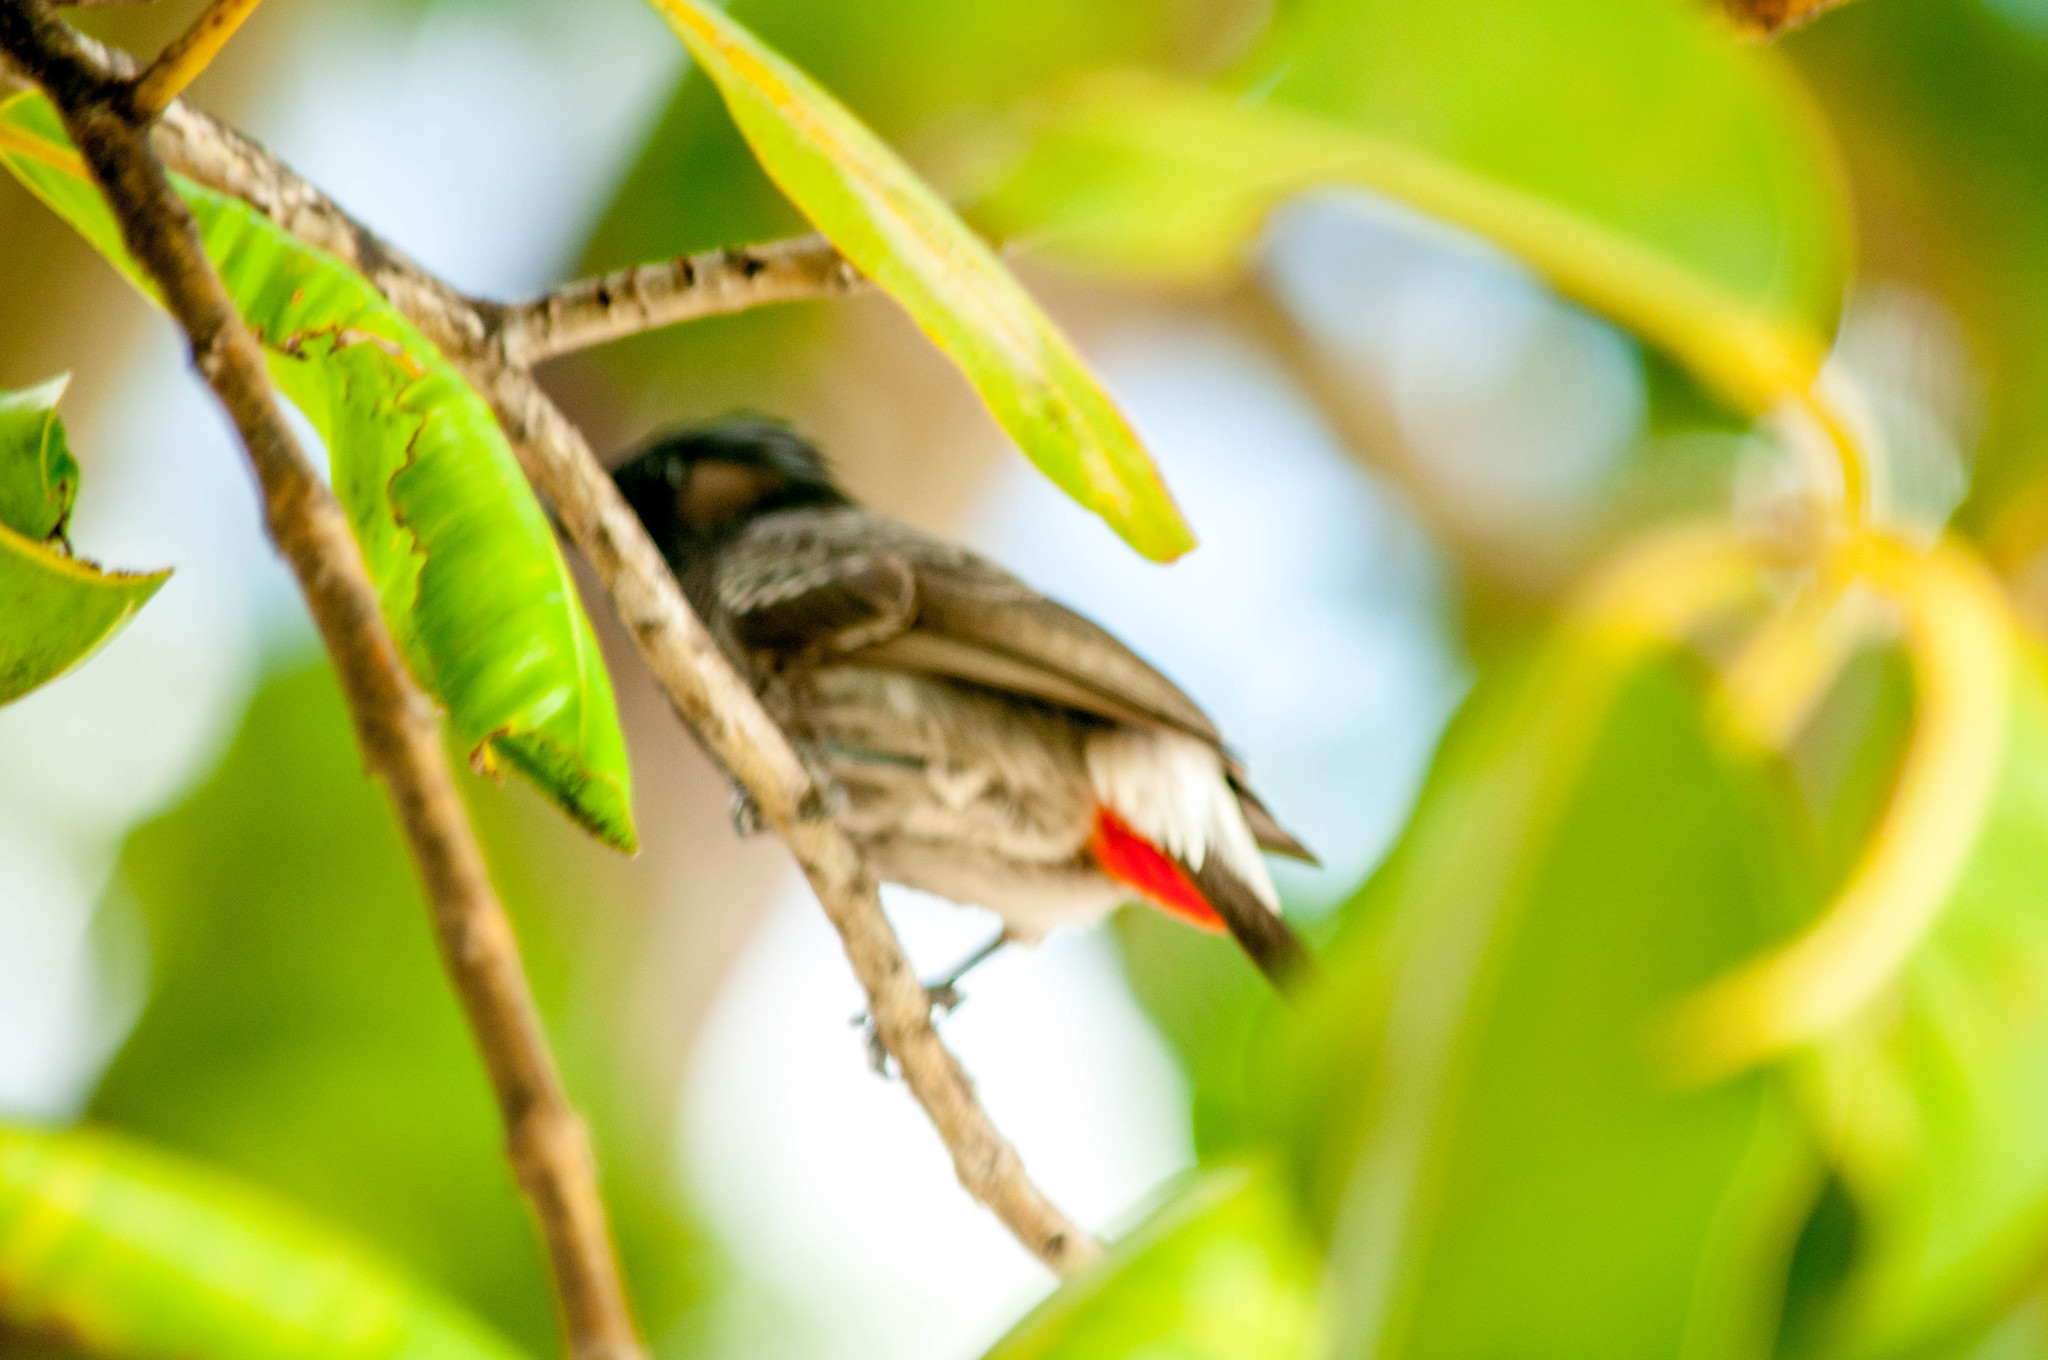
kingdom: Animalia
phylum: Chordata
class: Aves
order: Passeriformes
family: Pycnonotidae
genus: Pycnonotus
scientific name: Pycnonotus cafer
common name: Red-vented bulbul
